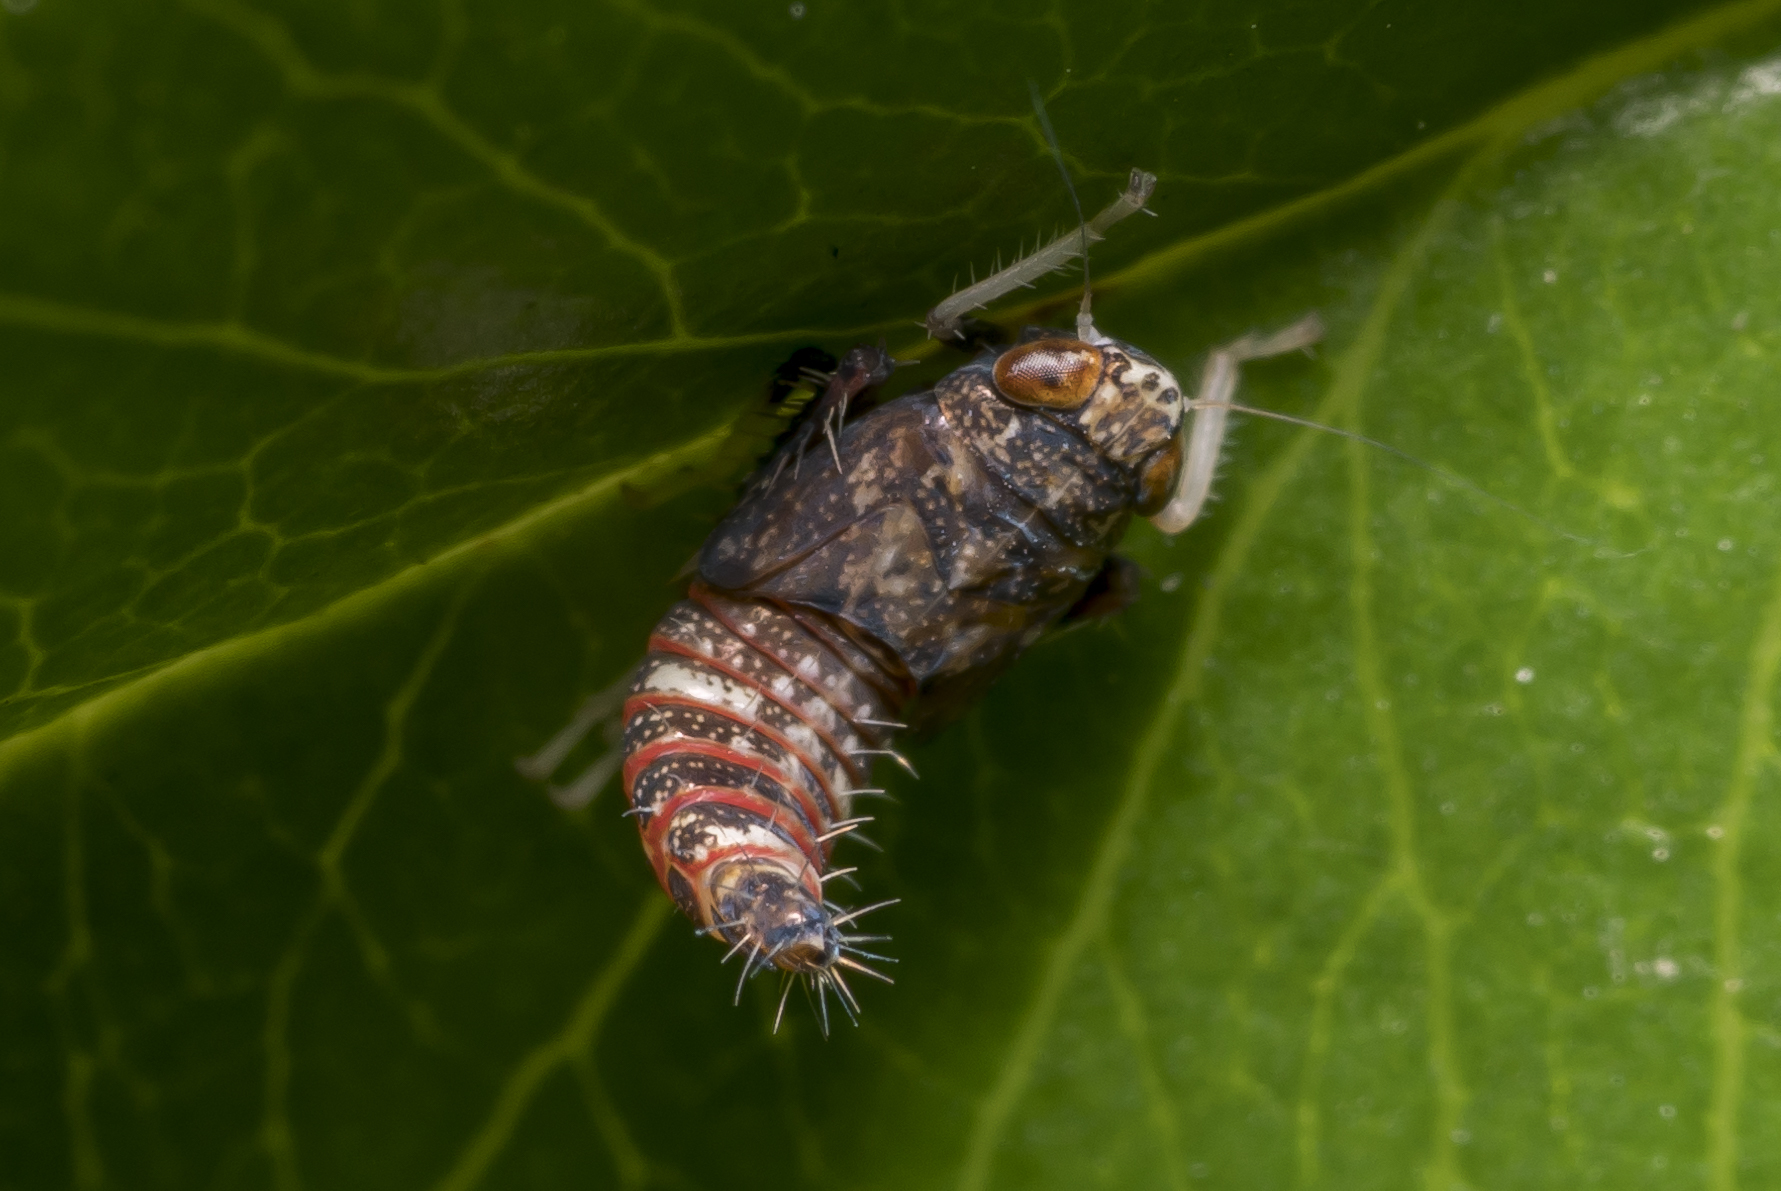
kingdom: Animalia
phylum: Arthropoda
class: Insecta
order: Hemiptera
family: Cicadellidae
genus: Orientus
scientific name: Orientus ishidae
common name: Japanese leafhopper
